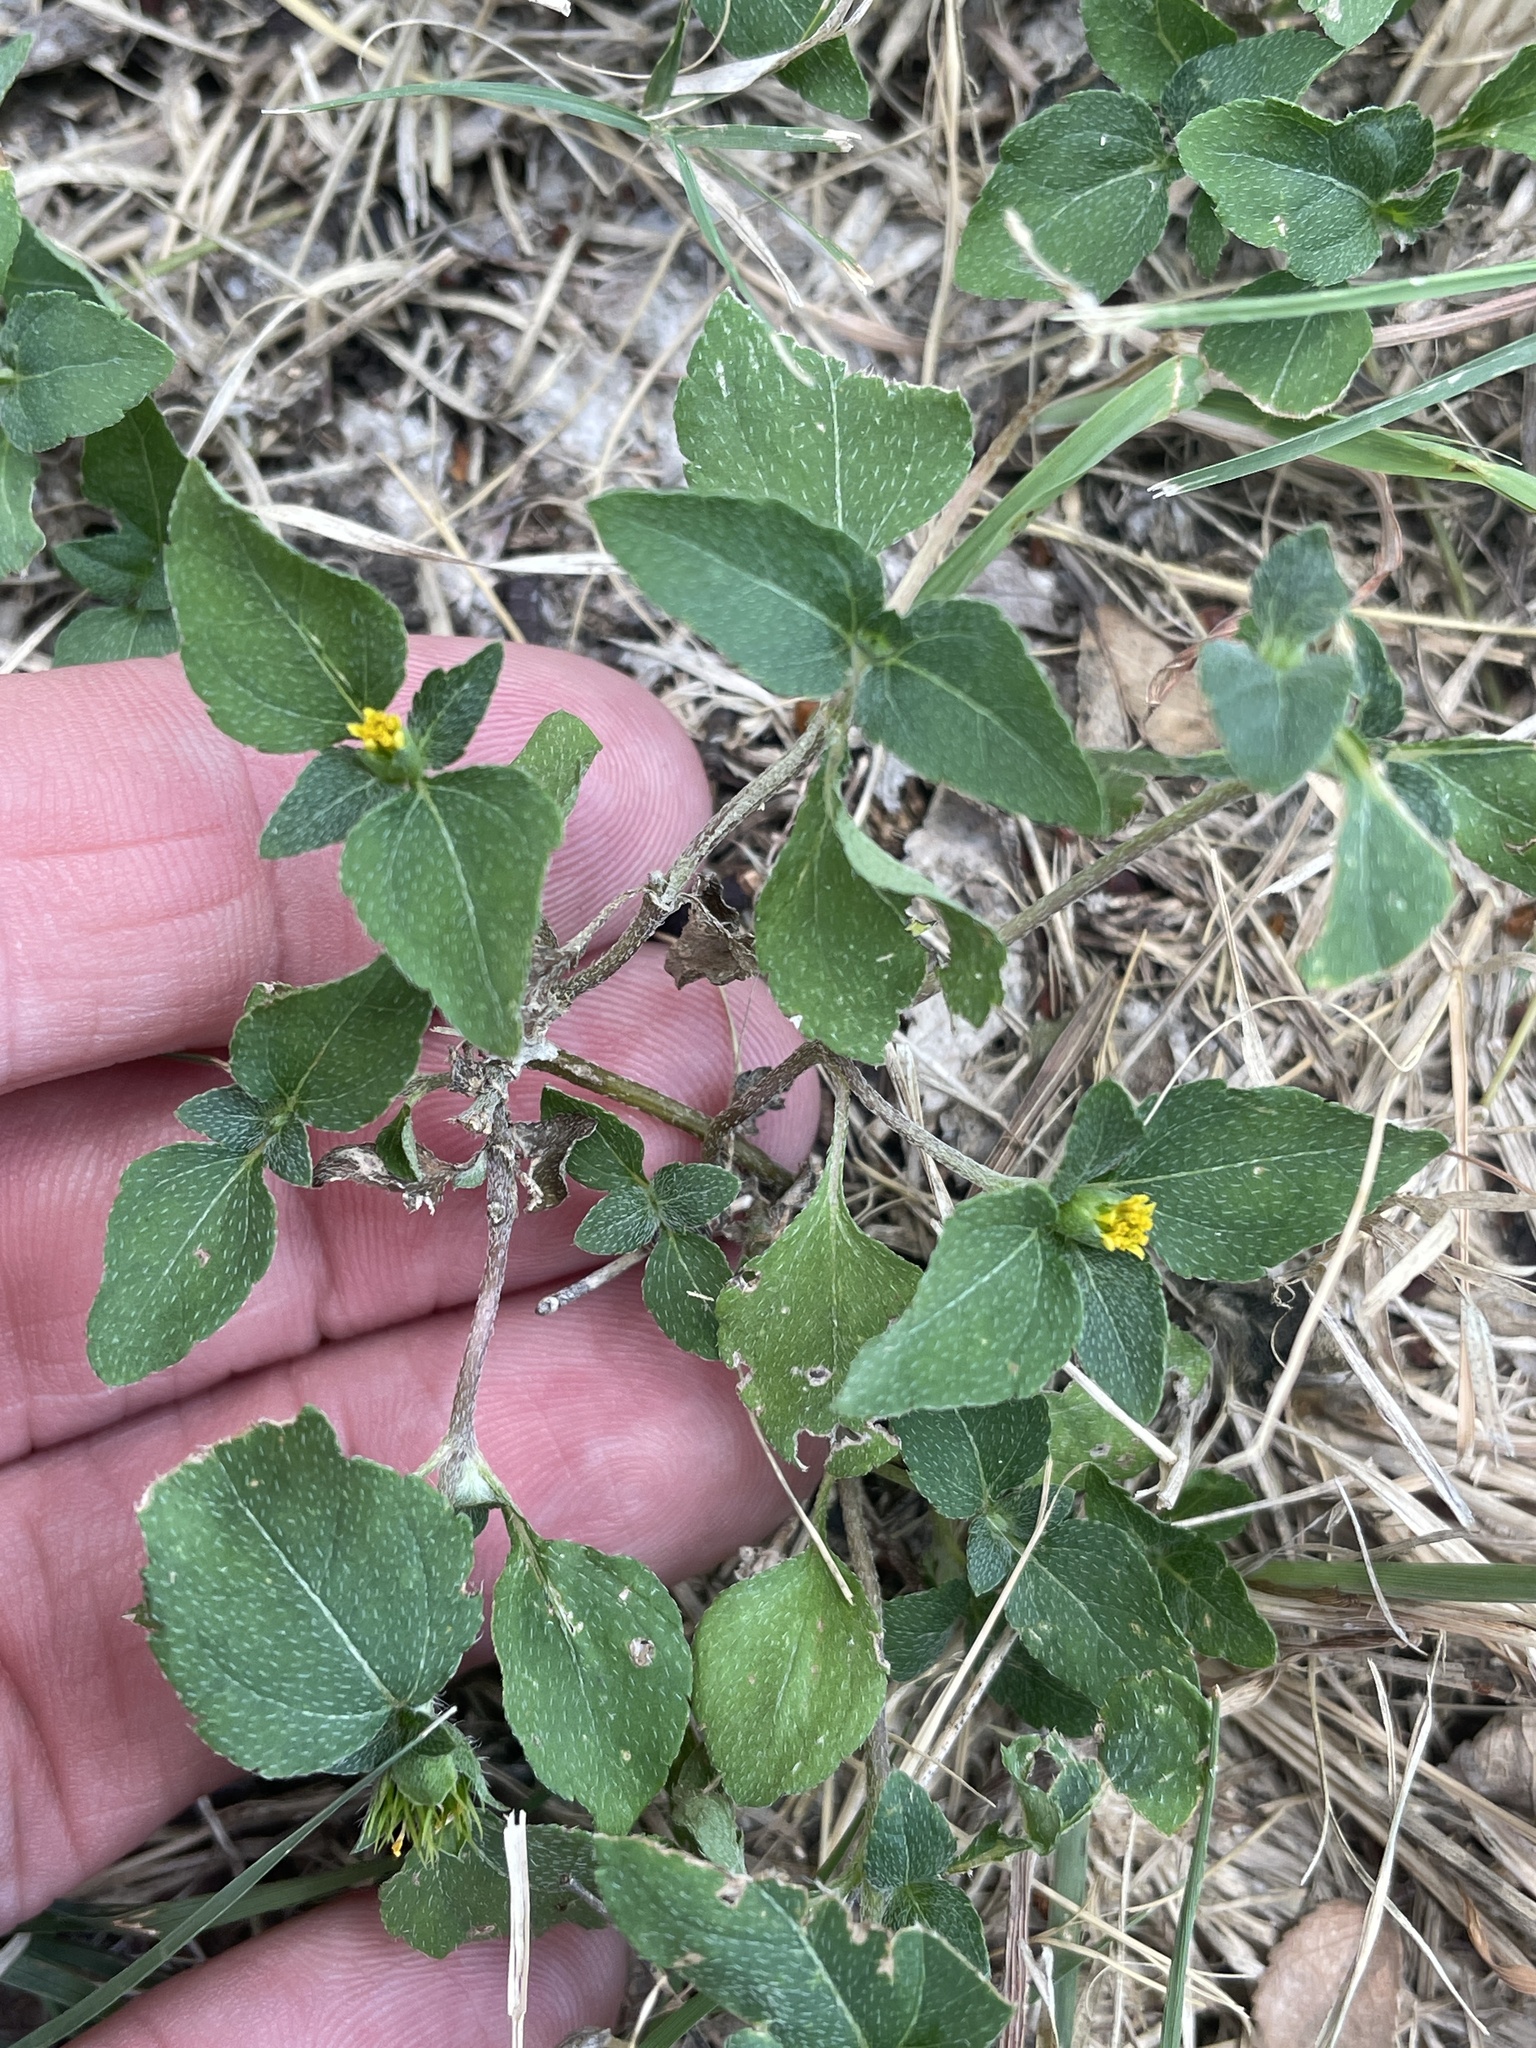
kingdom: Plantae
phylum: Tracheophyta
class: Magnoliopsida
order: Asterales
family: Asteraceae
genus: Calyptocarpus
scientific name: Calyptocarpus vialis
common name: Straggler daisy
